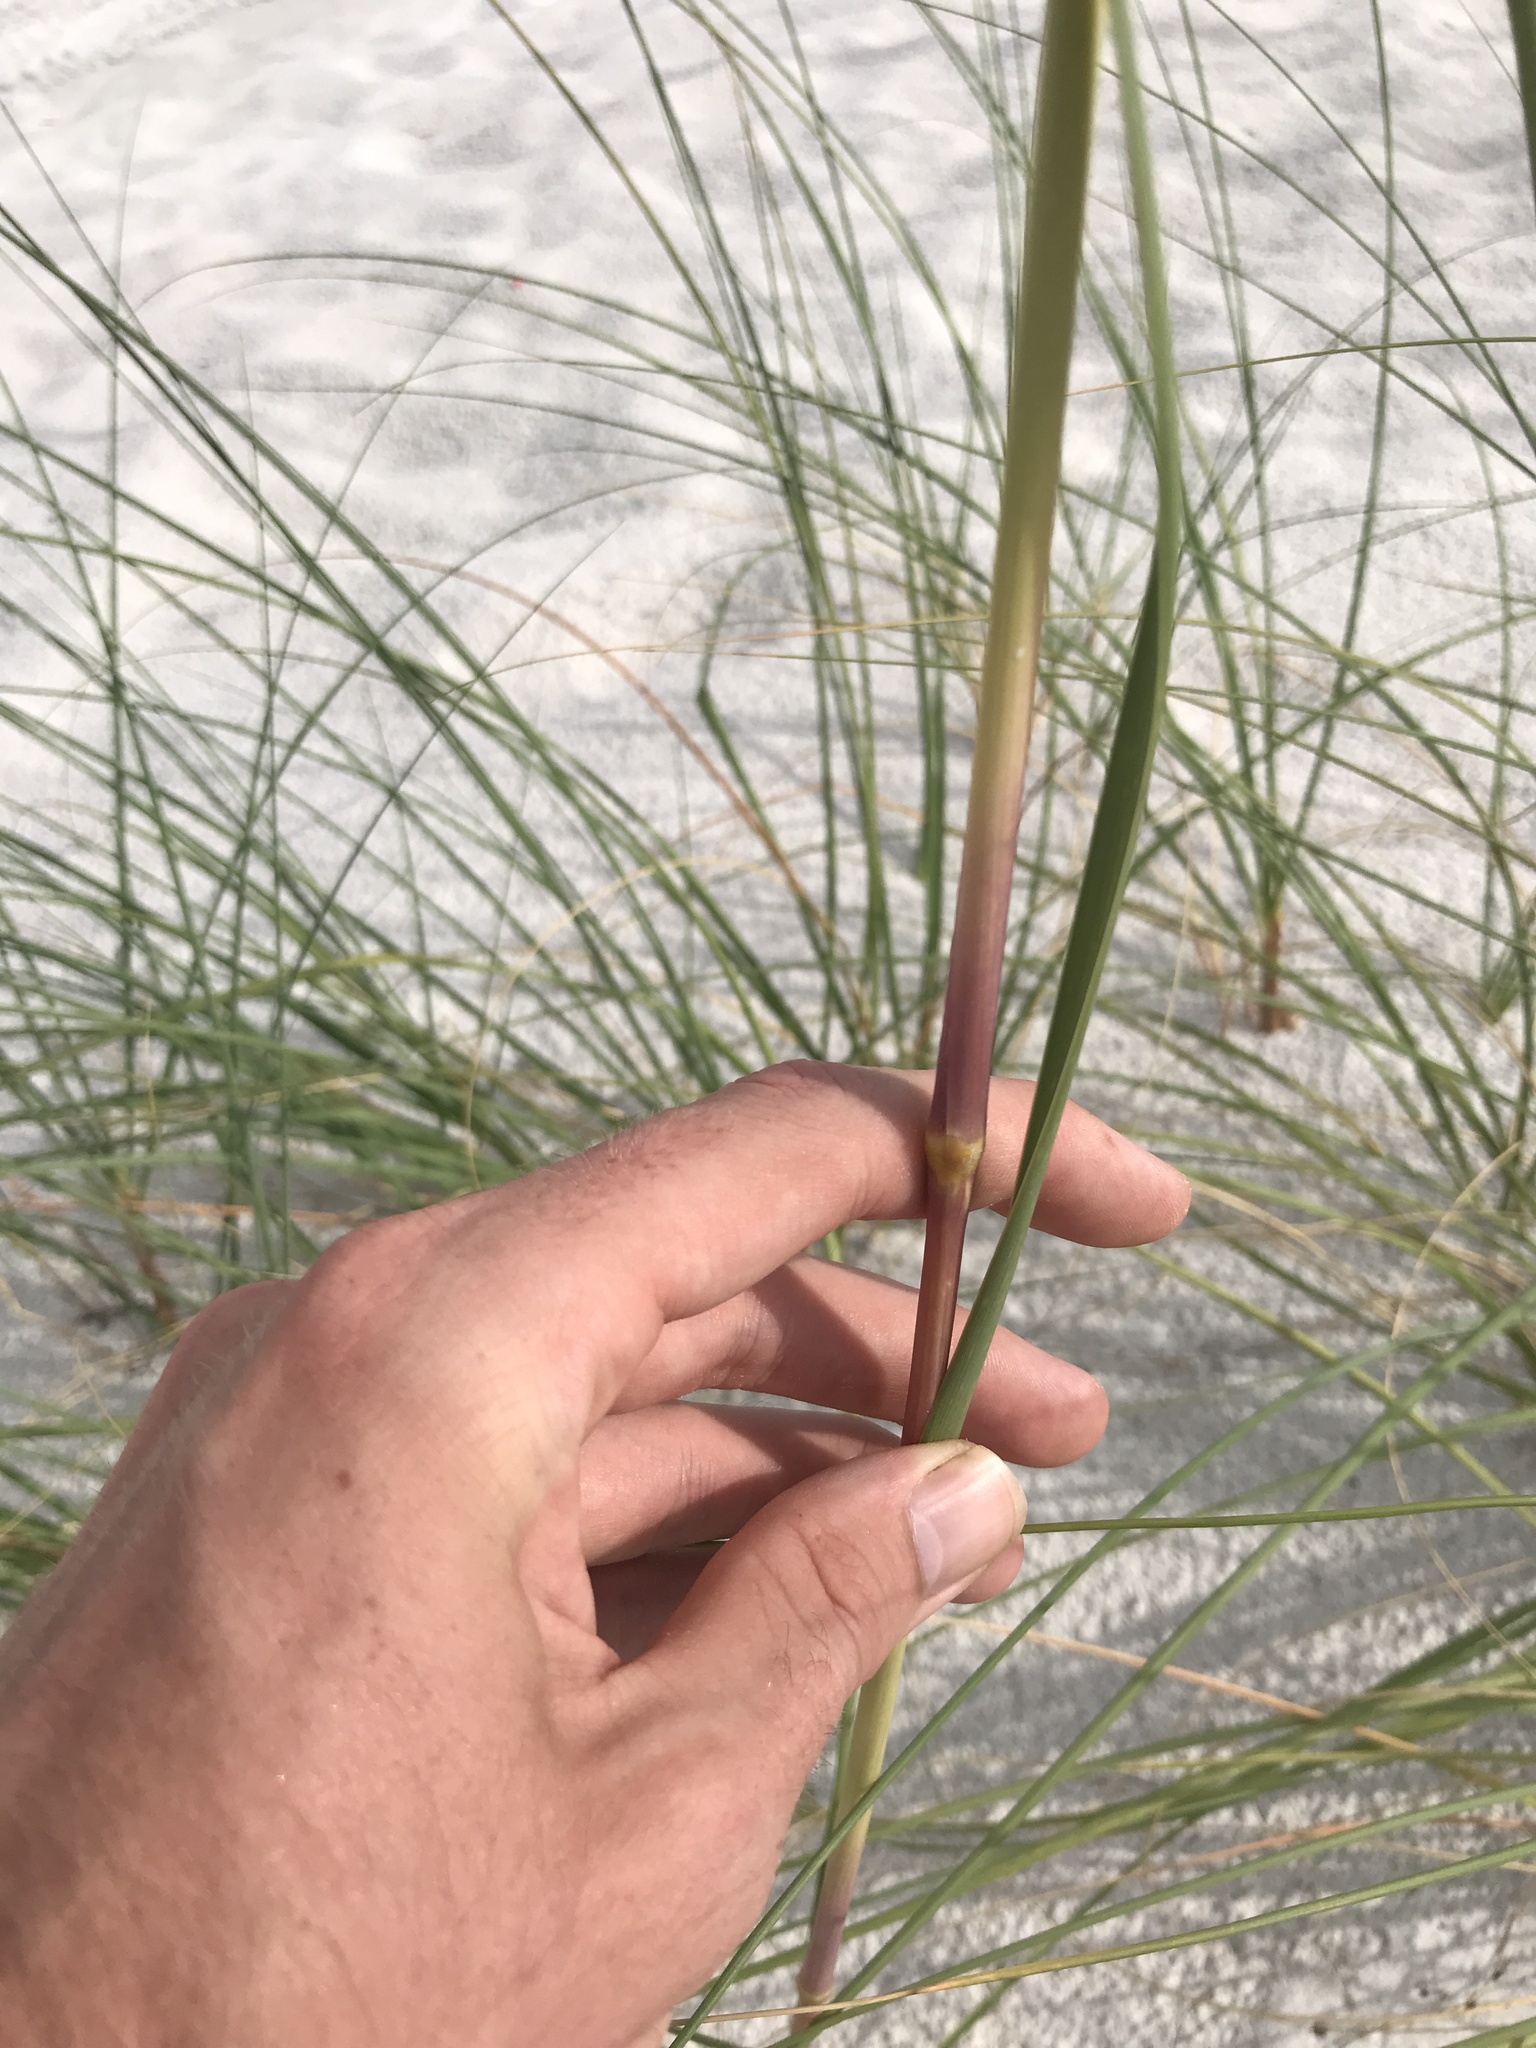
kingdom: Plantae
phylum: Tracheophyta
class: Liliopsida
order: Poales
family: Poaceae
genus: Uniola
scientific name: Uniola paniculata
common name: Seaside-oats
